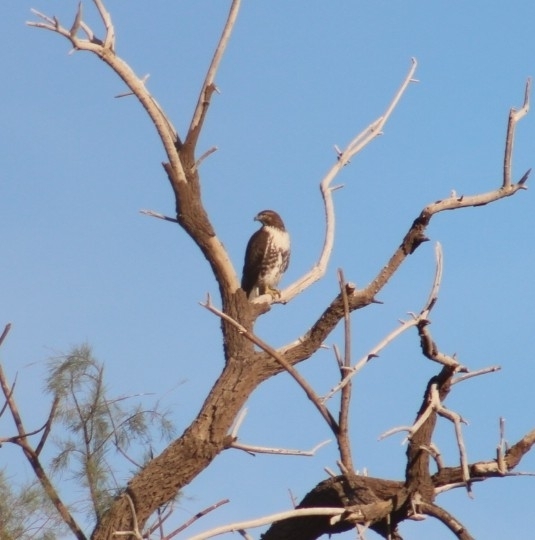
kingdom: Animalia
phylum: Chordata
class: Aves
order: Accipitriformes
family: Accipitridae
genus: Buteo
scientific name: Buteo jamaicensis
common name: Red-tailed hawk
